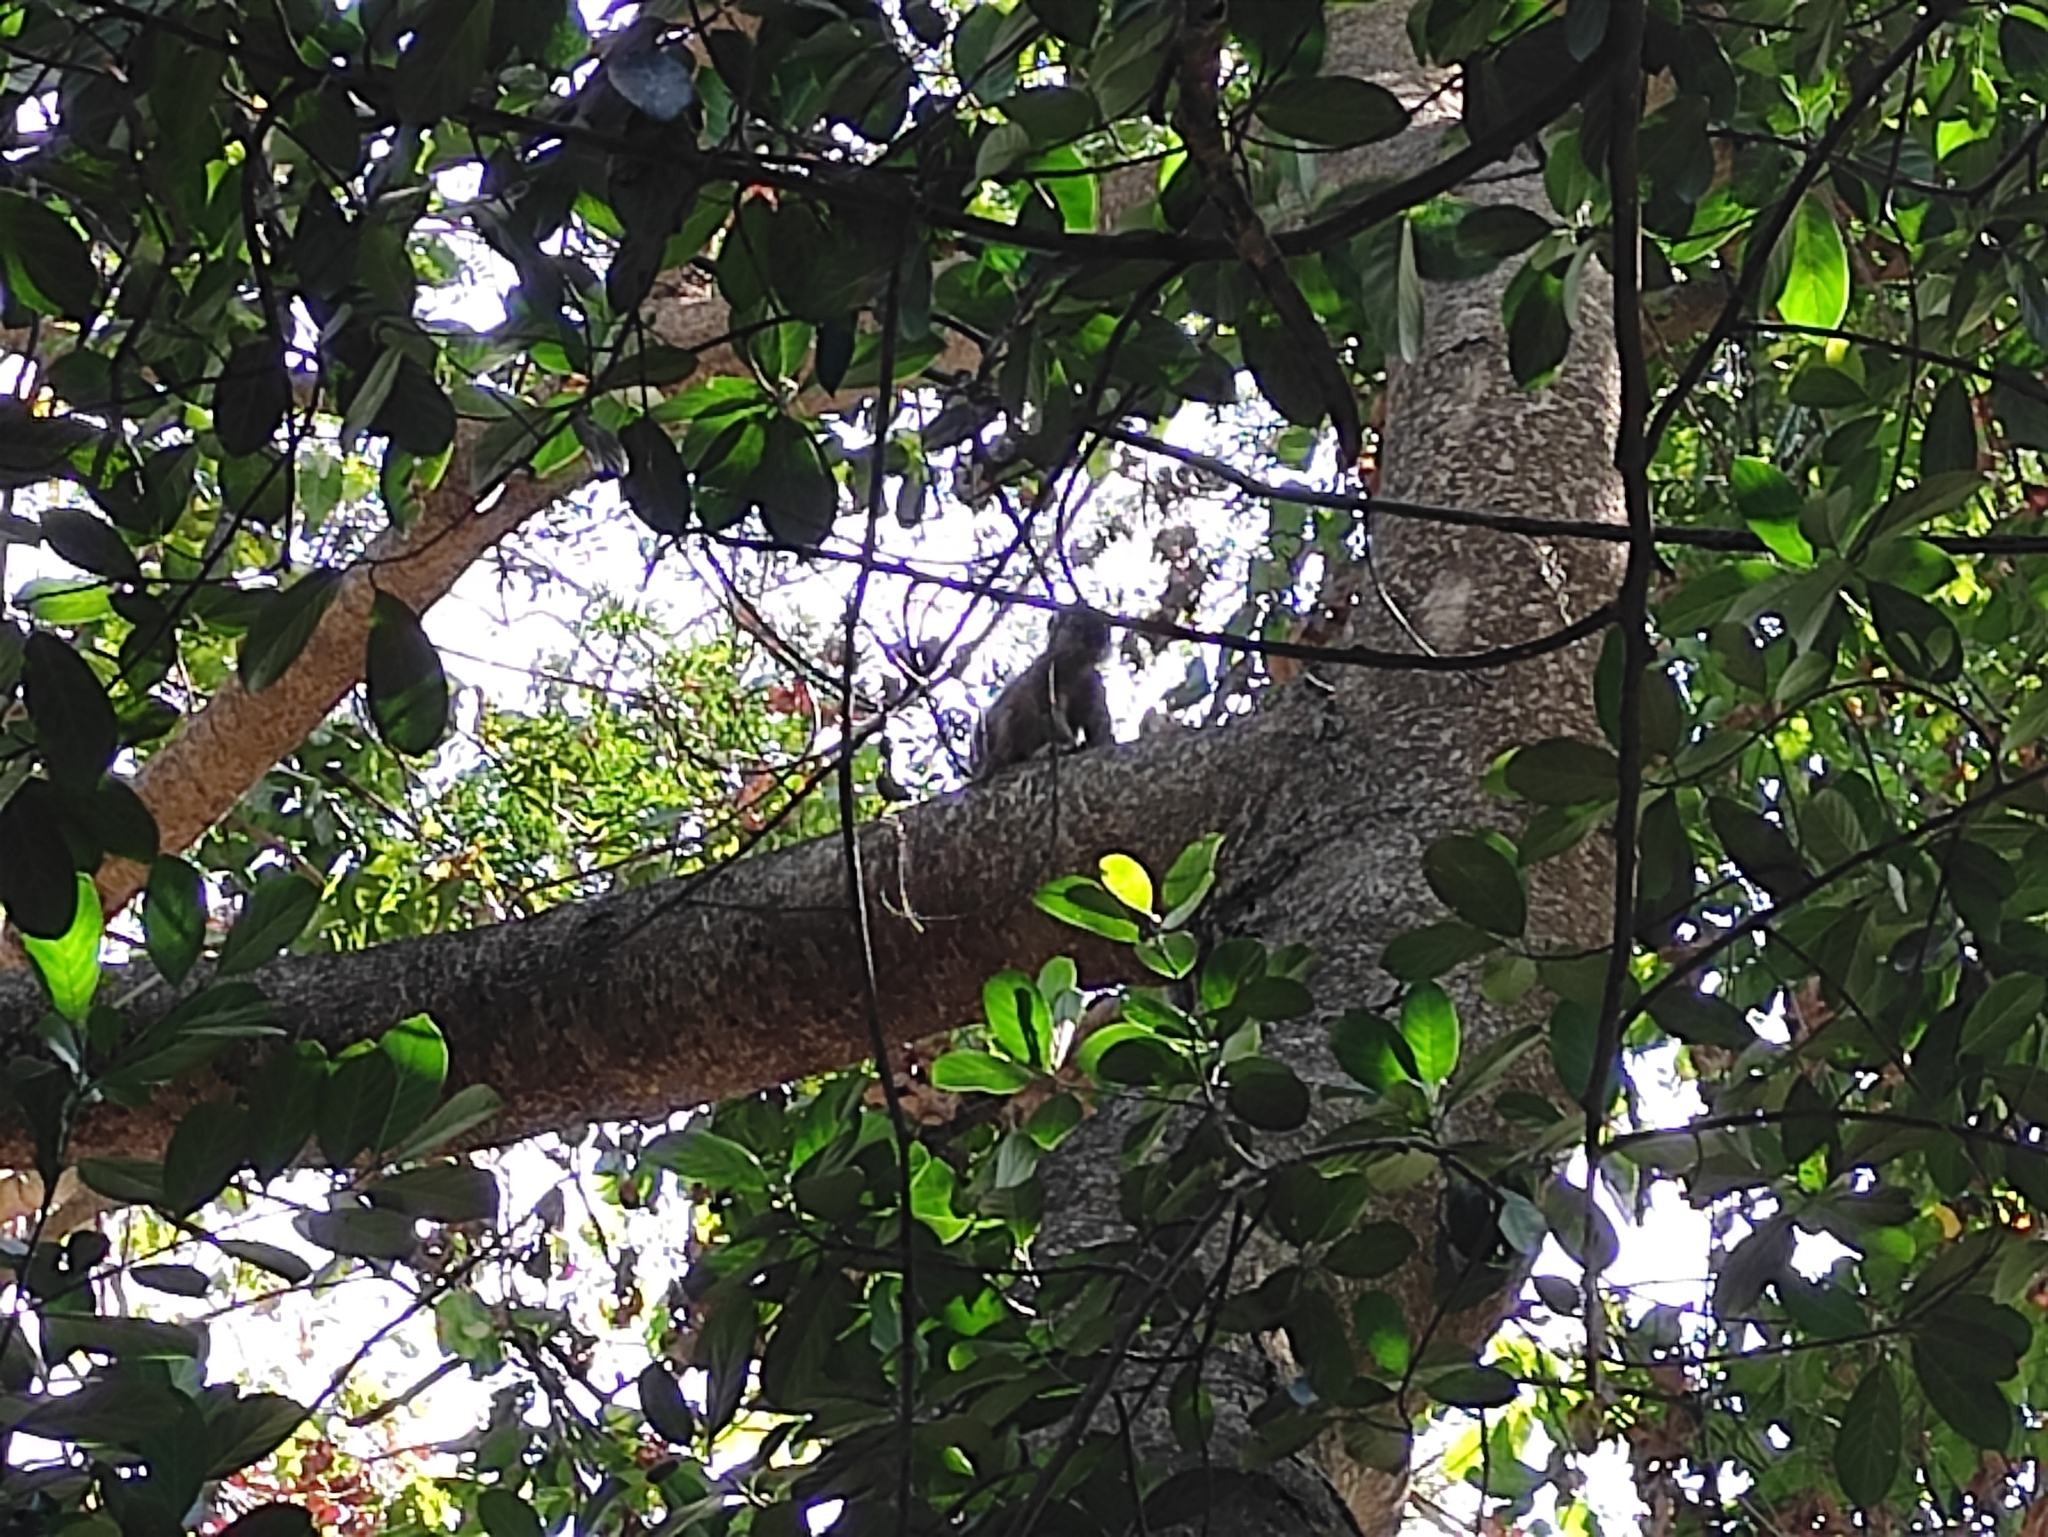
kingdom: Animalia
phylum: Chordata
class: Mammalia
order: Primates
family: Lemuridae
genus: Eulemur
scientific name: Eulemur fulvus
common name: Brown lemur
